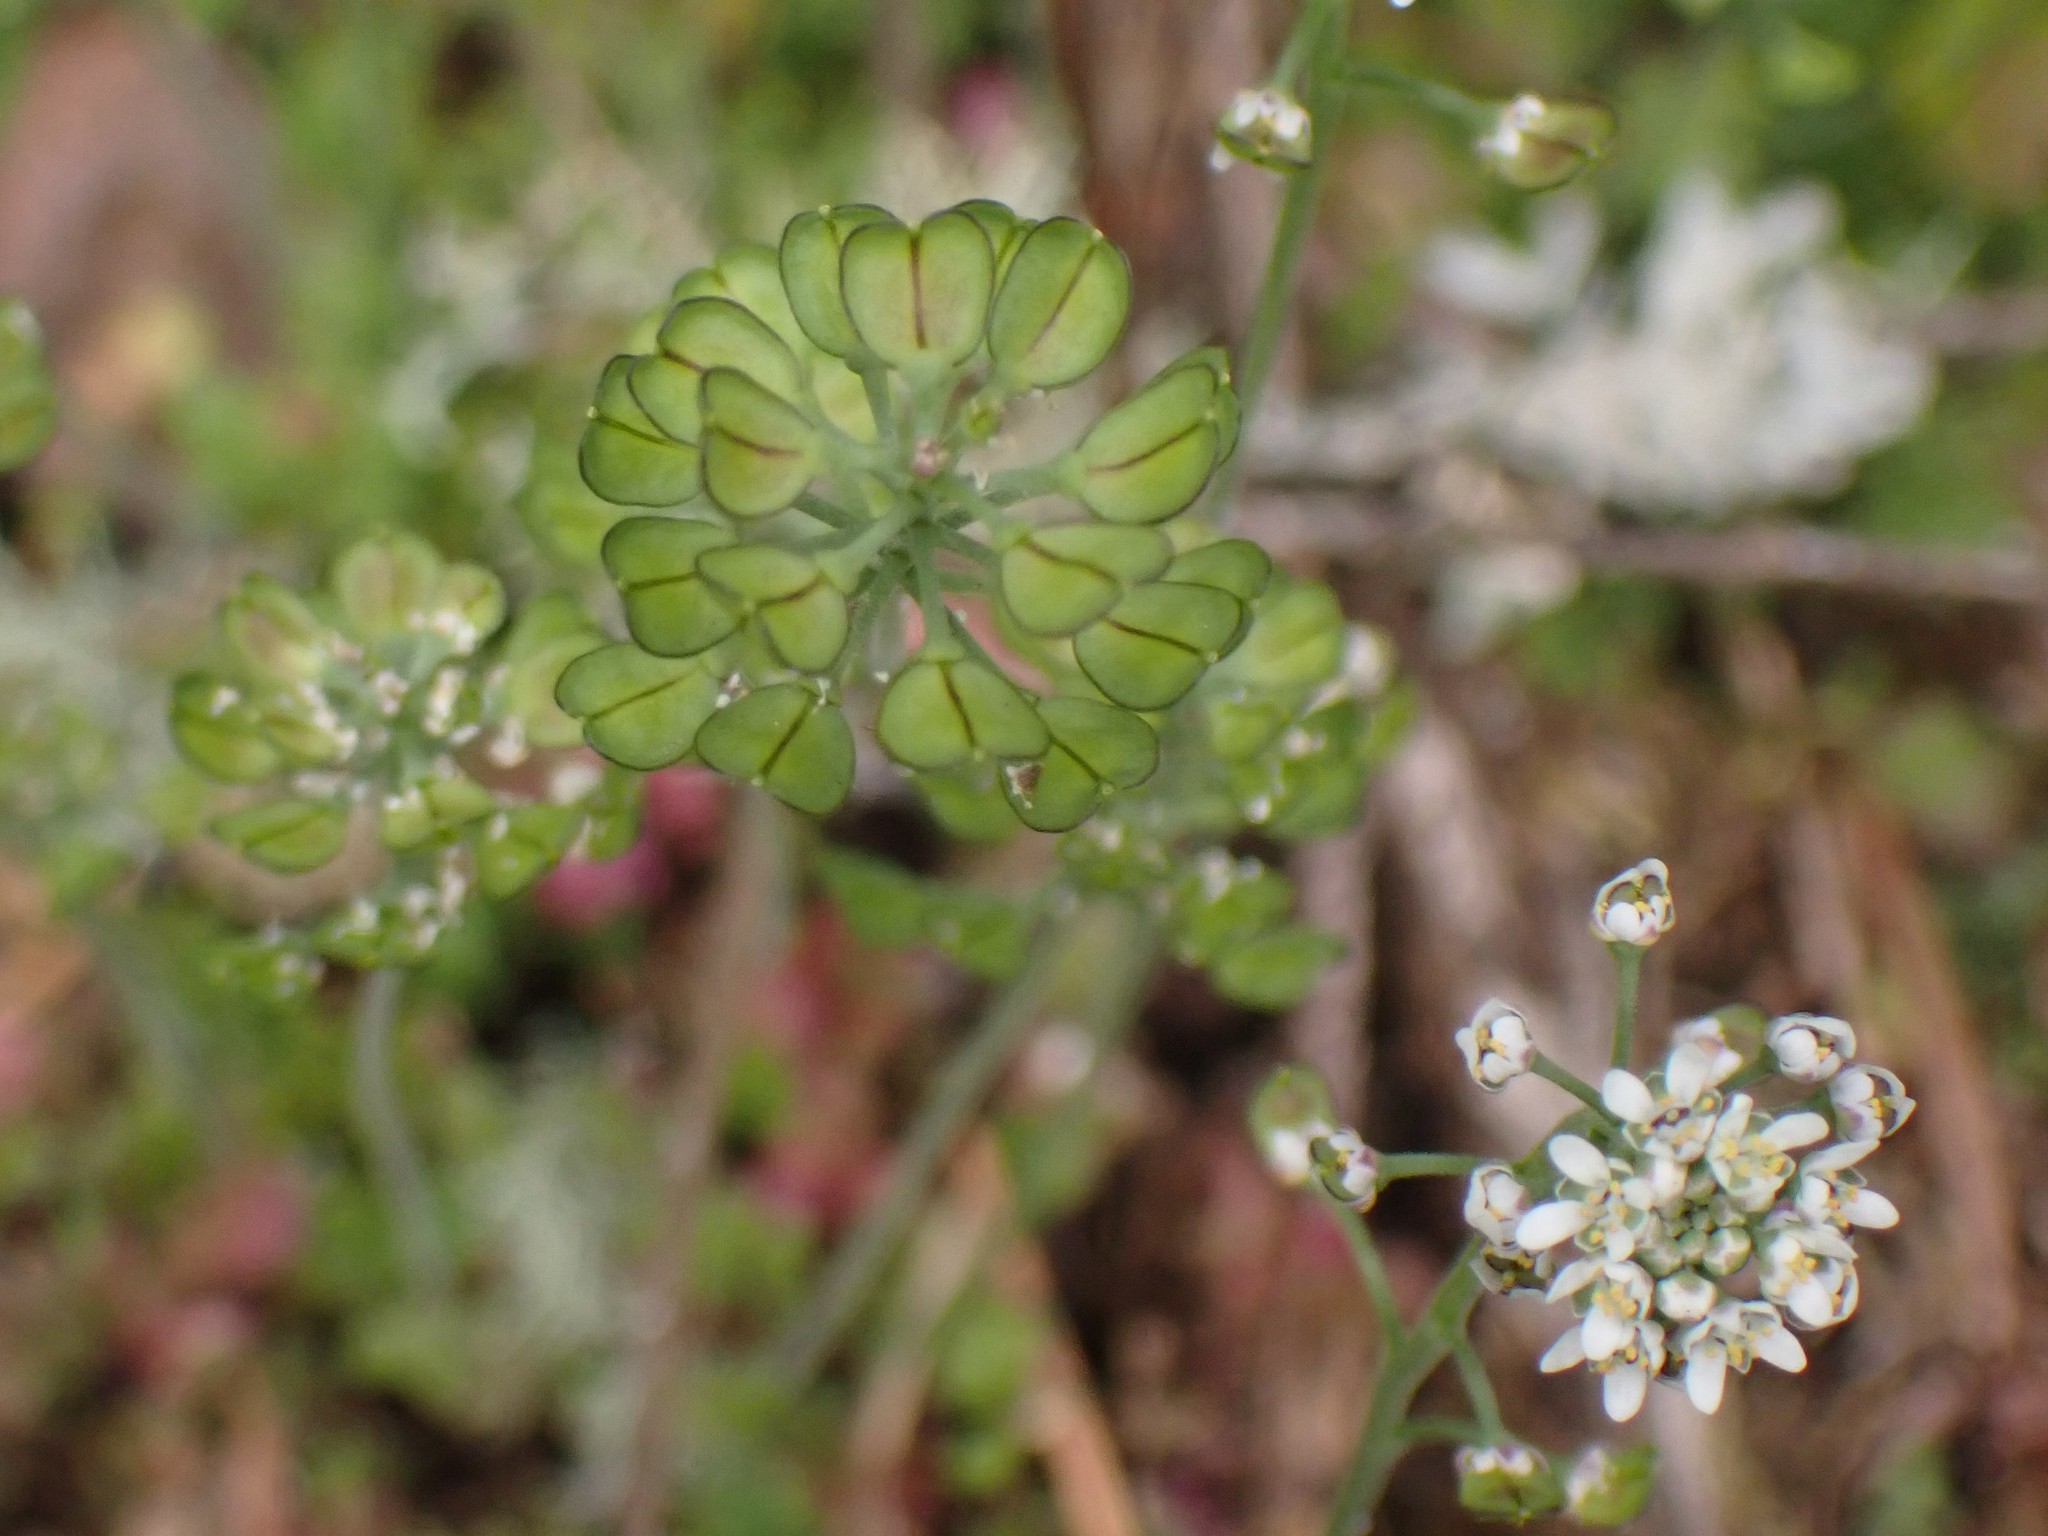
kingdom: Plantae
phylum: Tracheophyta
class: Magnoliopsida
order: Brassicales
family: Brassicaceae
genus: Teesdalia
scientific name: Teesdalia nudicaulis
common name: Shepherd's cress
